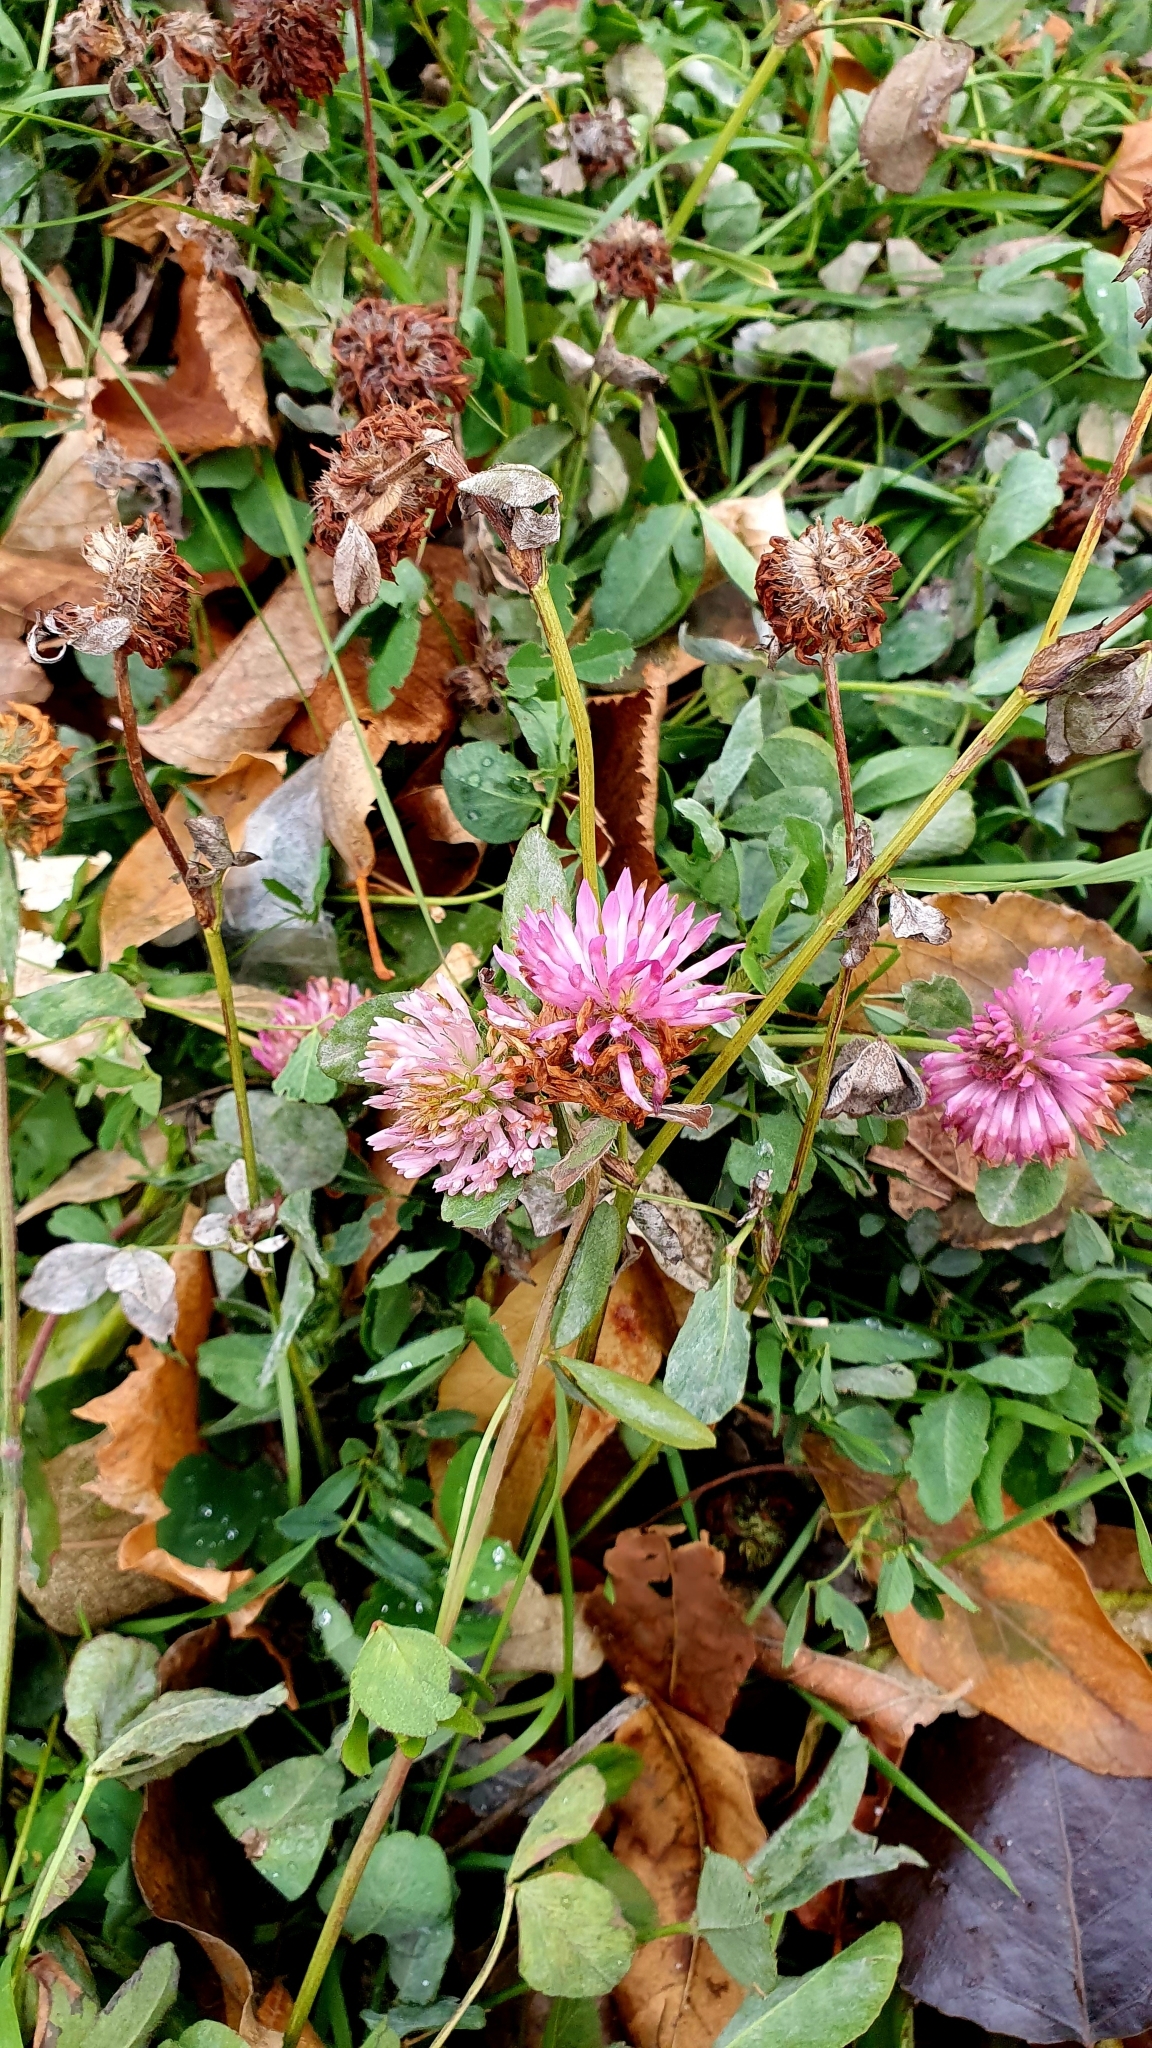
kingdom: Plantae
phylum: Tracheophyta
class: Magnoliopsida
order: Fabales
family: Fabaceae
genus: Trifolium
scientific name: Trifolium pratense
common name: Red clover
